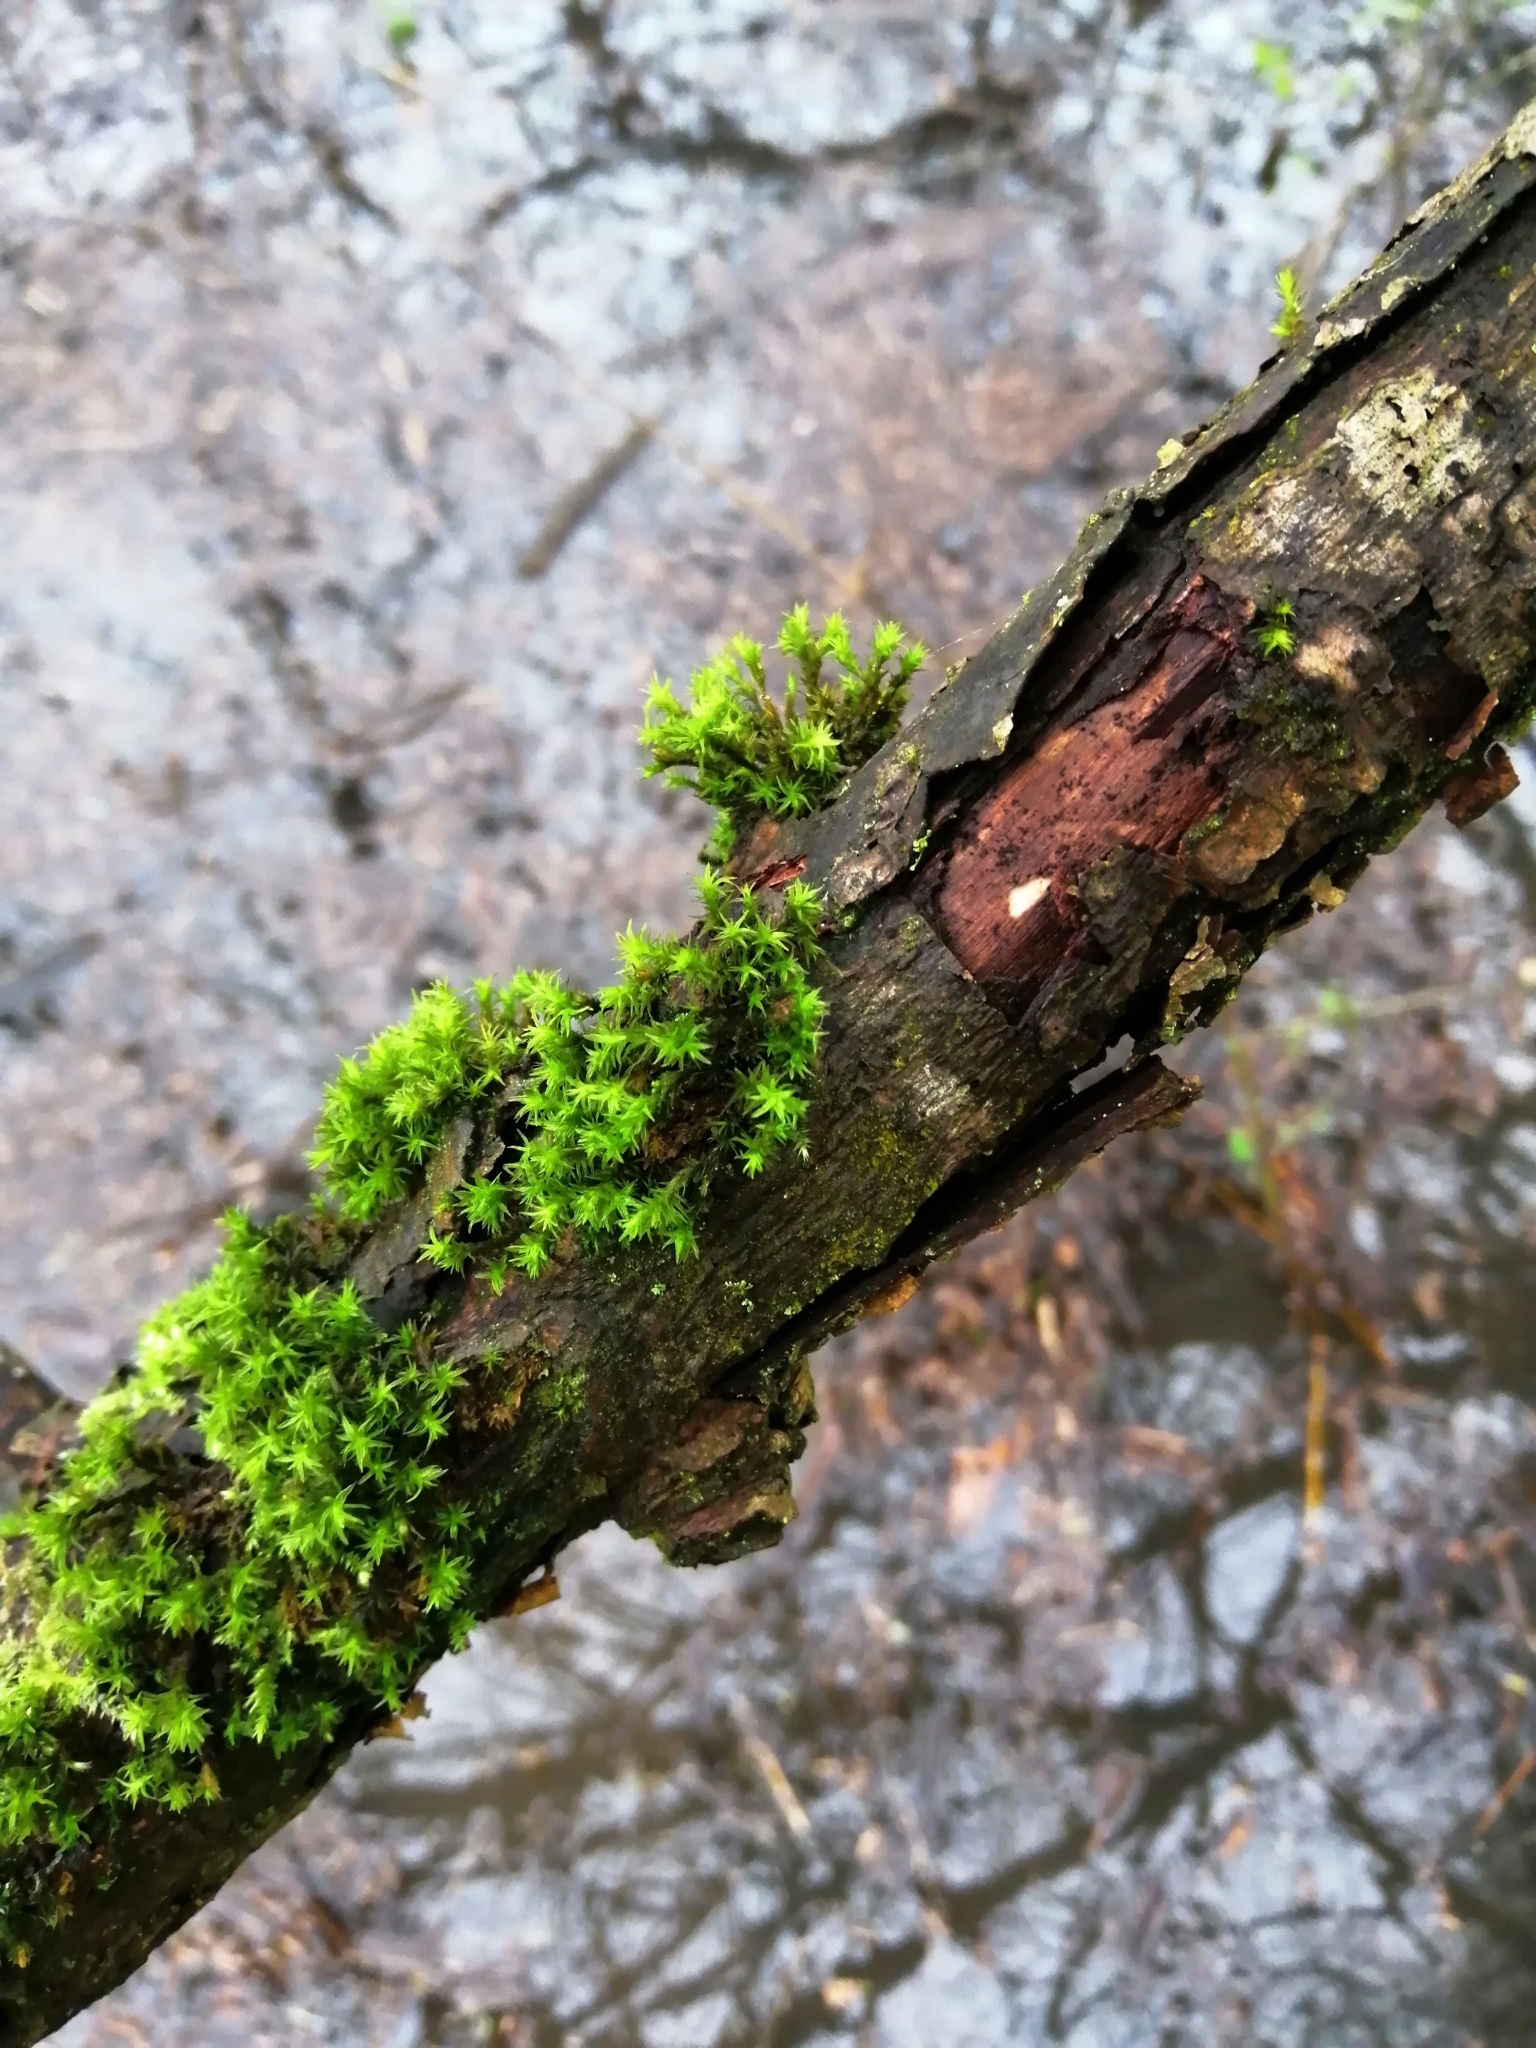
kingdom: Plantae
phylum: Bryophyta
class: Bryopsida
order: Orthotrichales
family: Orthotrichaceae
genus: Lewinskya
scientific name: Lewinskya affinis
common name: Wood bristle-moss
